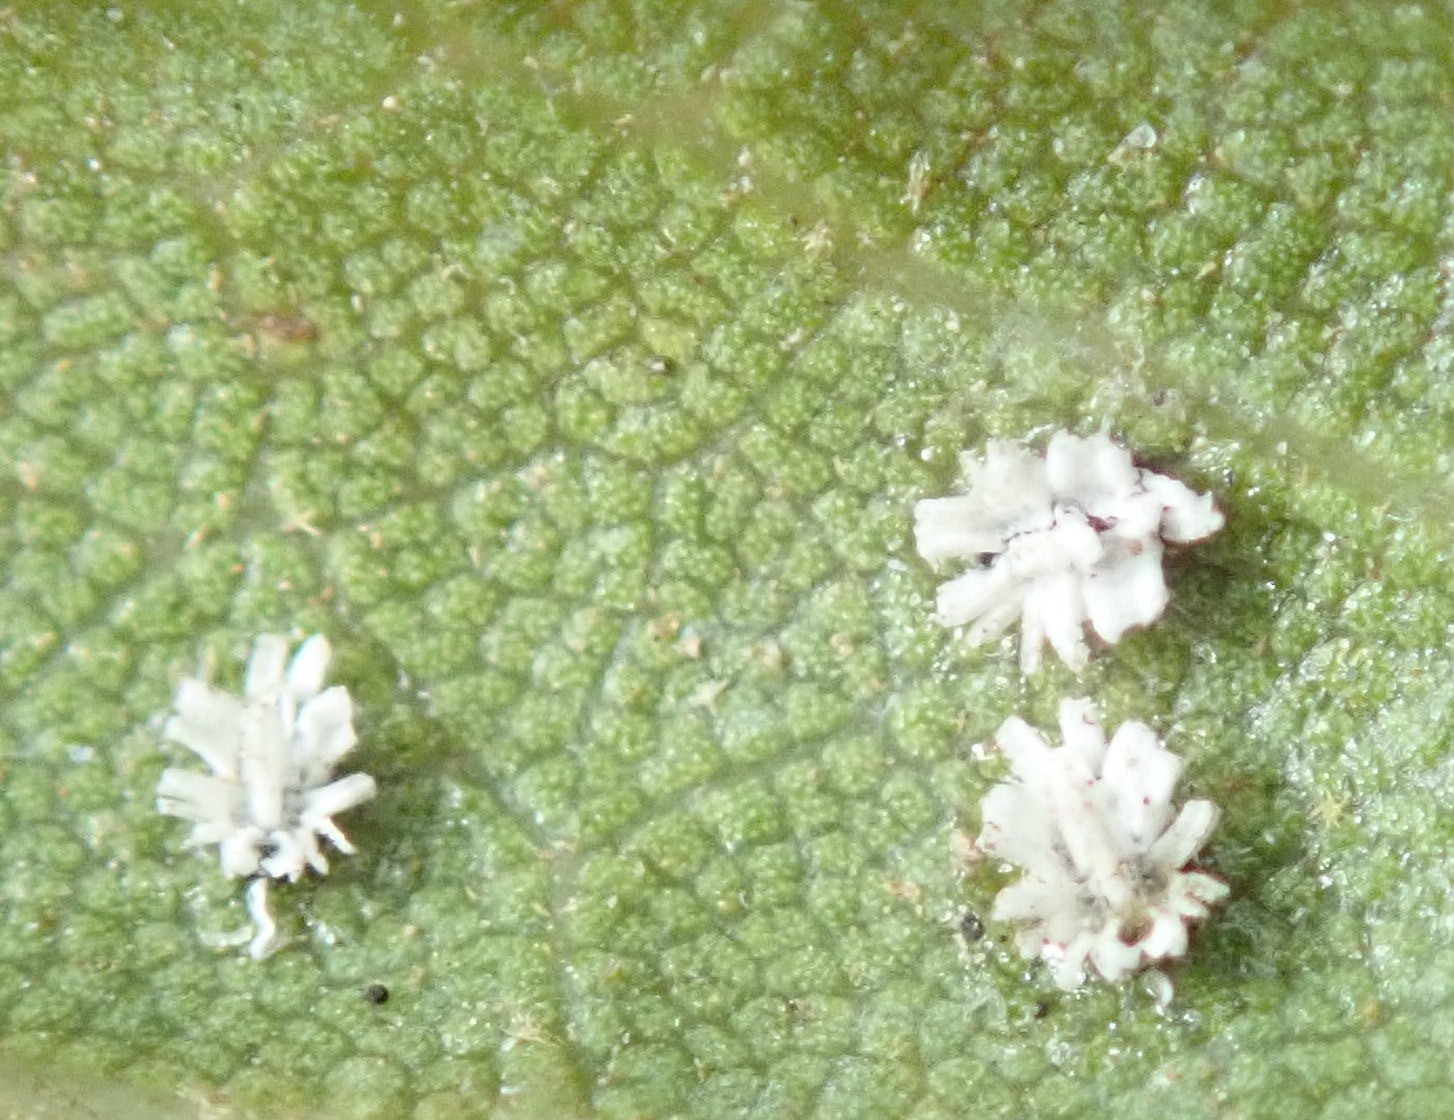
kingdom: Animalia
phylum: Arthropoda
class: Insecta
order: Hemiptera
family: Aleyrodidae
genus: Aleuroplatus
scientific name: Aleuroplatus coronata
